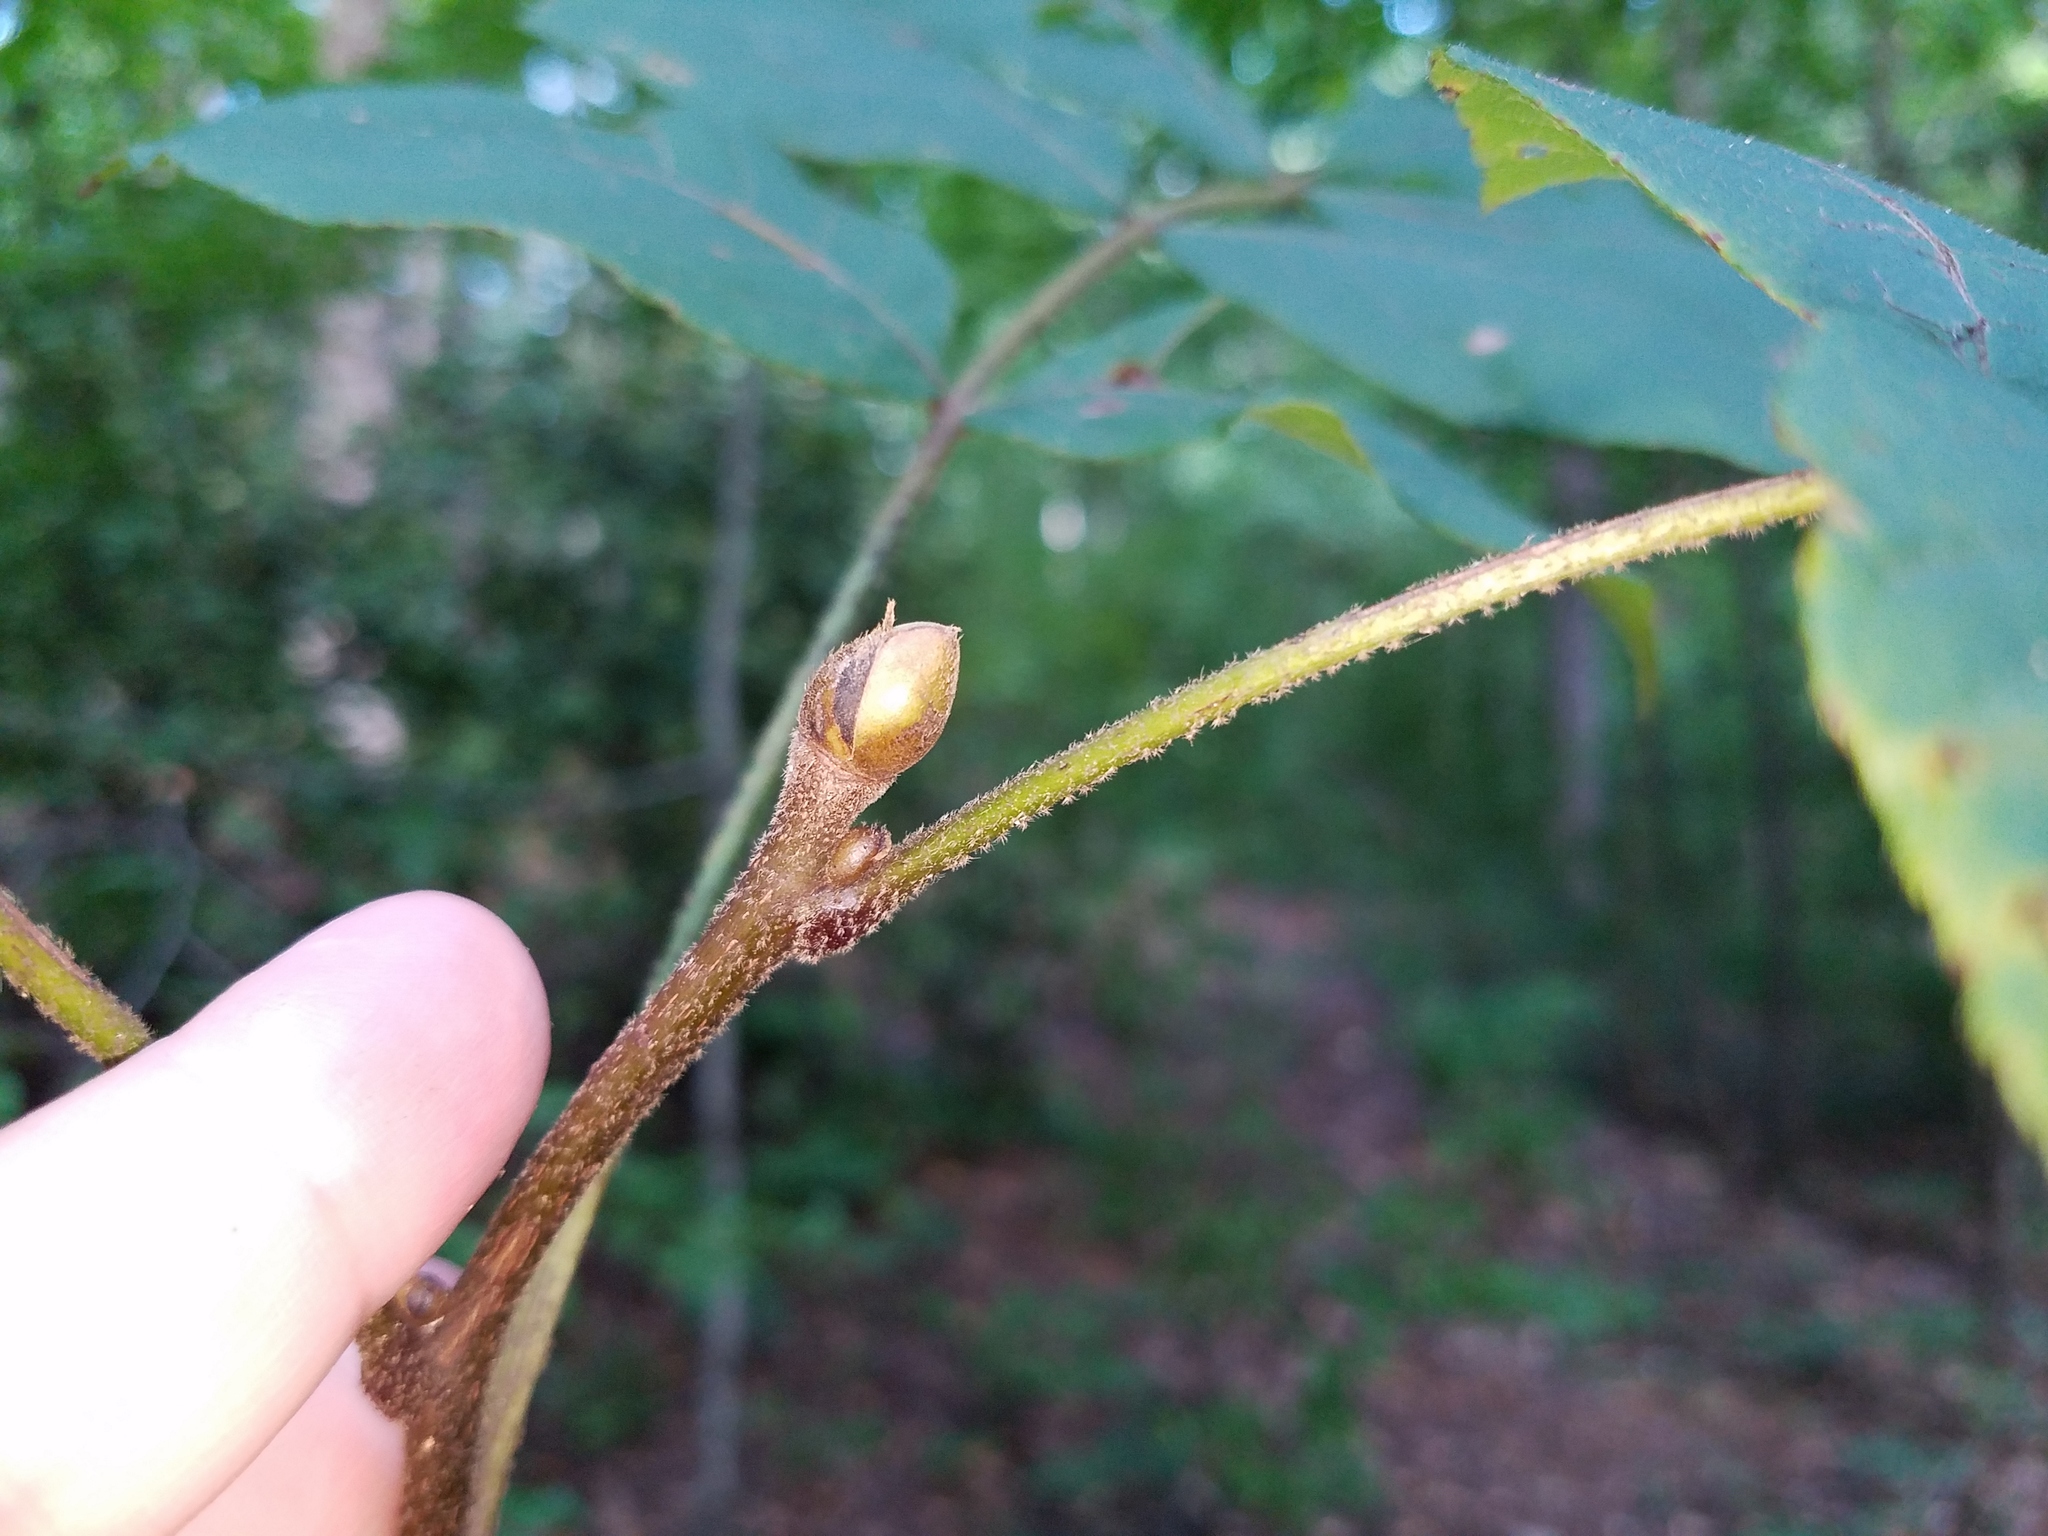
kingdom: Plantae
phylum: Tracheophyta
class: Magnoliopsida
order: Fagales
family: Juglandaceae
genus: Carya
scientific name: Carya alba
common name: Mockernut hickory
